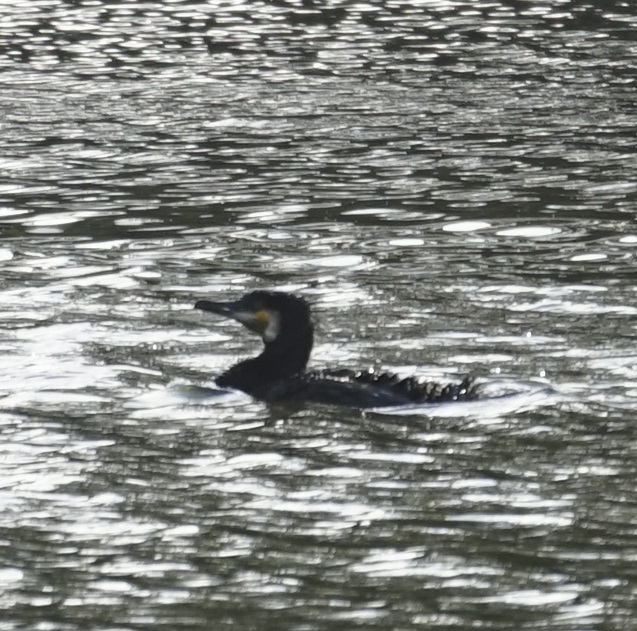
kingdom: Animalia
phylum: Chordata
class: Aves
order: Suliformes
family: Phalacrocoracidae
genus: Phalacrocorax
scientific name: Phalacrocorax carbo
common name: Great cormorant
